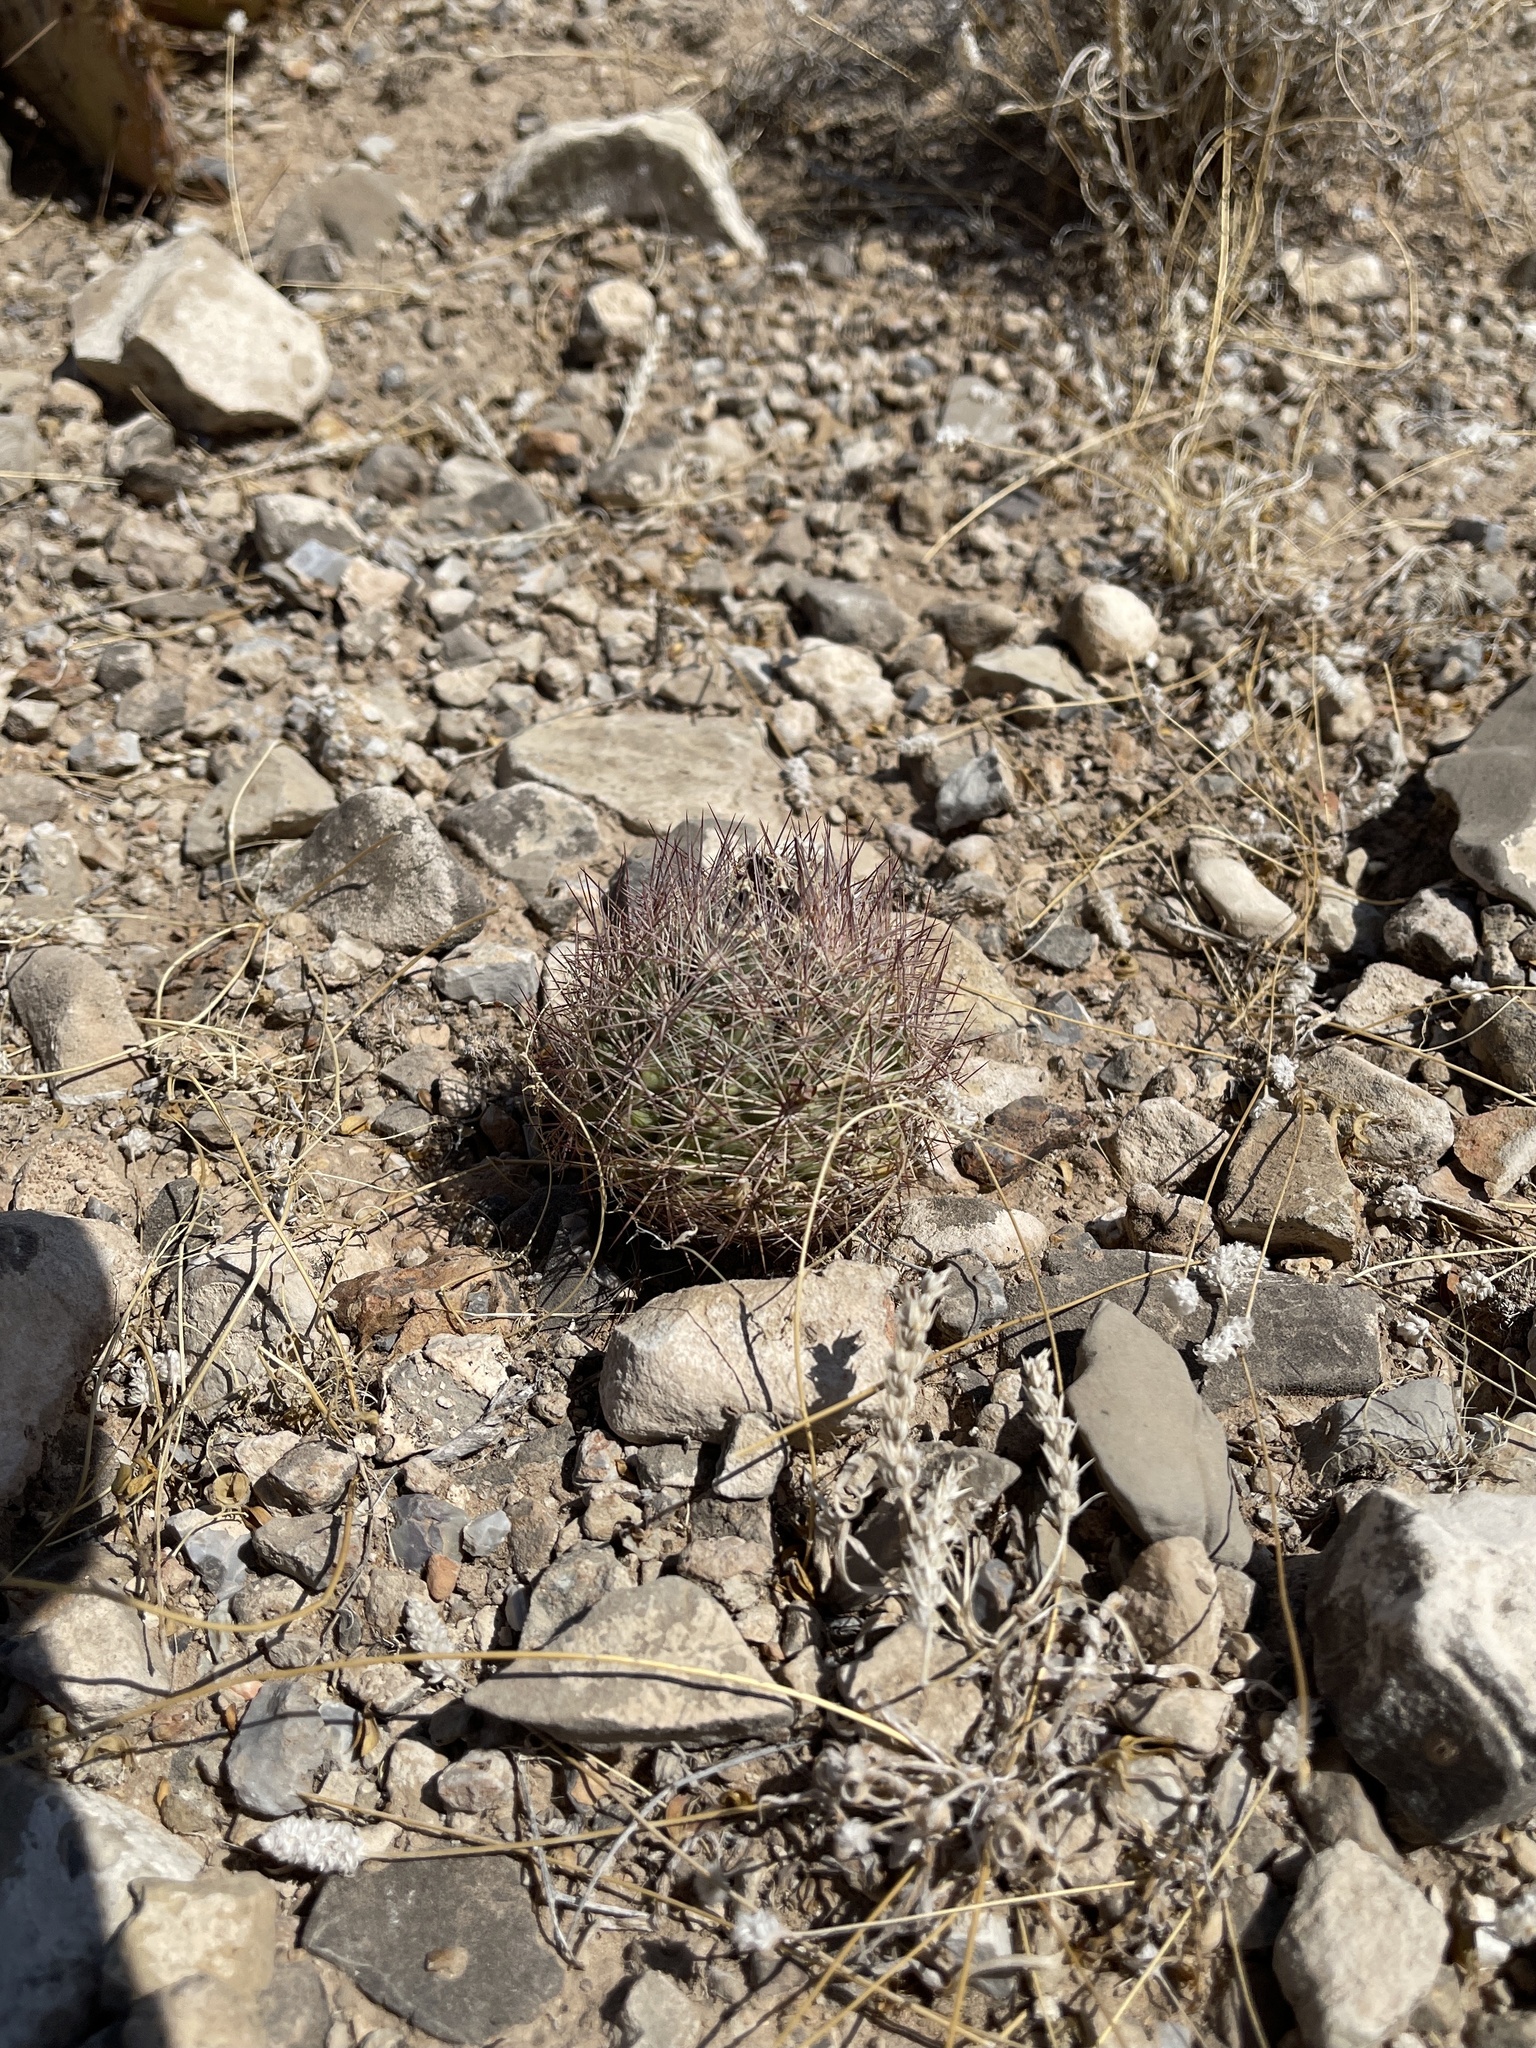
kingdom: Plantae
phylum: Tracheophyta
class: Magnoliopsida
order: Caryophyllales
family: Cactaceae
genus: Sclerocactus
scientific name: Sclerocactus intertextus
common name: White fish-hook cactus
